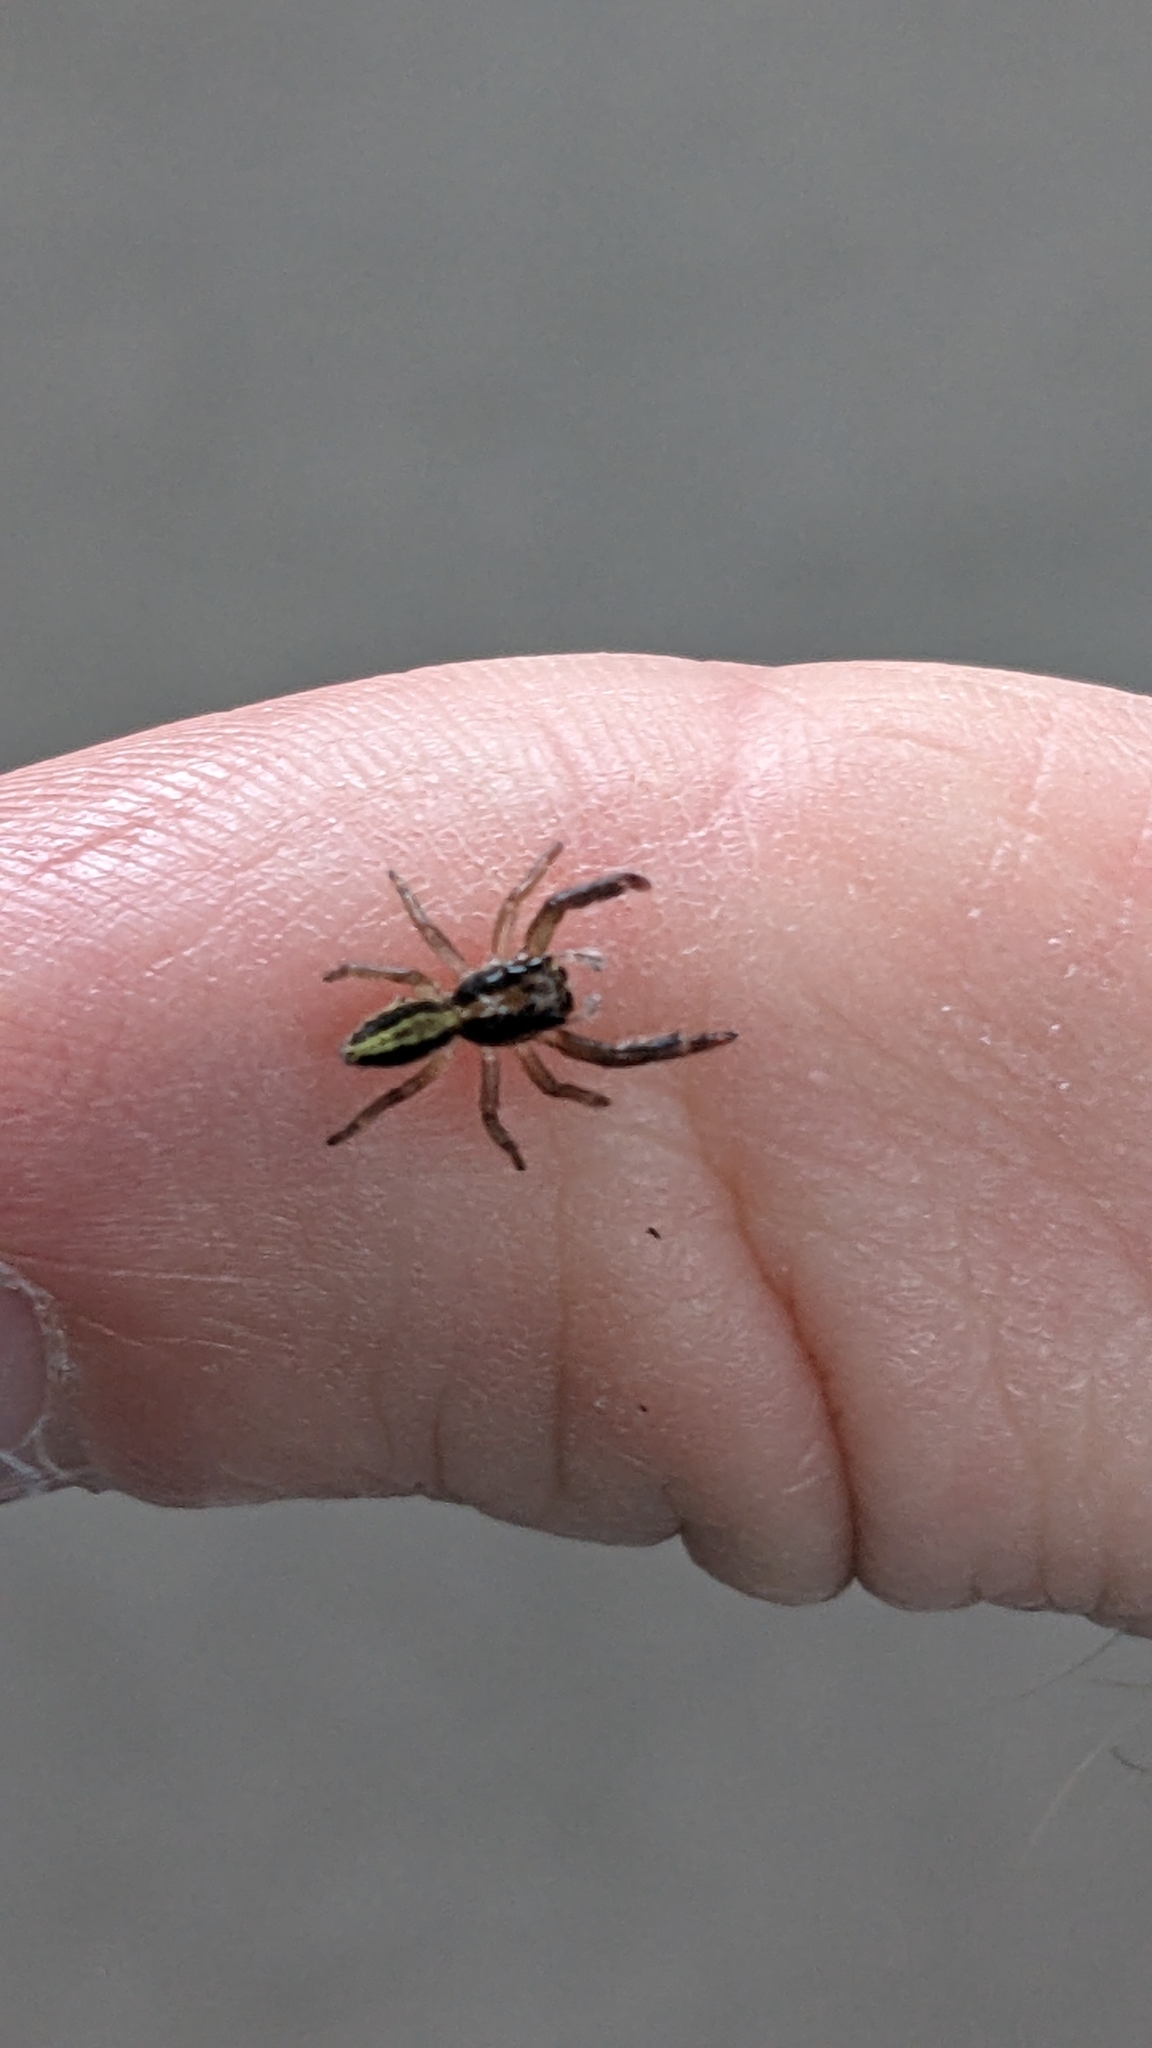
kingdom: Animalia
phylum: Arthropoda
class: Arachnida
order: Araneae
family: Salticidae
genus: Trite
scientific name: Trite planiceps
